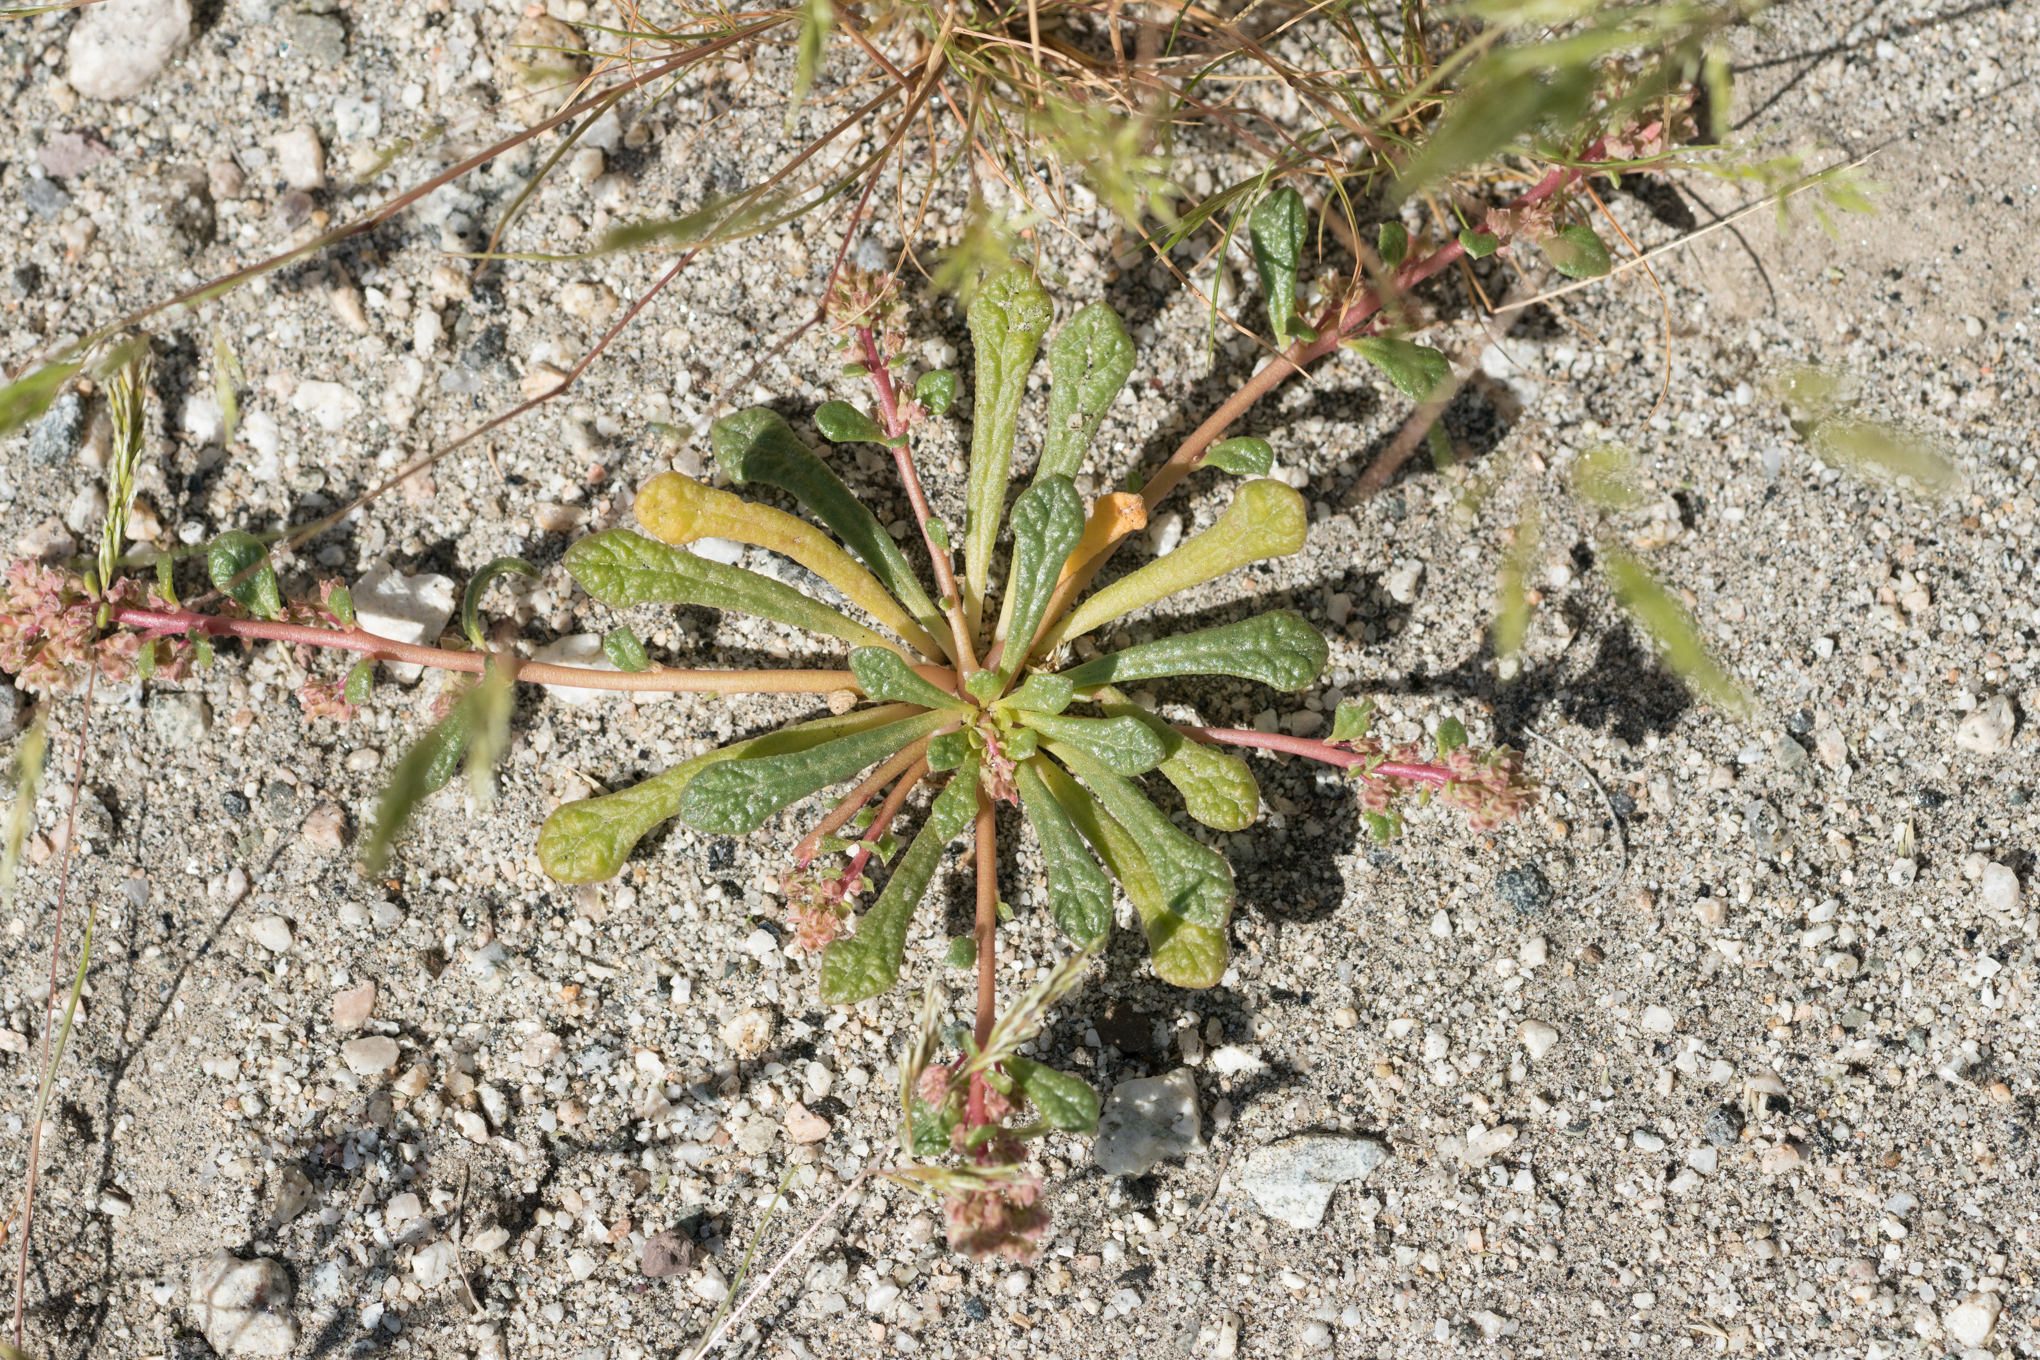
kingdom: Plantae
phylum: Tracheophyta
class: Magnoliopsida
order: Caryophyllales
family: Montiaceae
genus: Calyptridium
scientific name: Calyptridium monandrum
